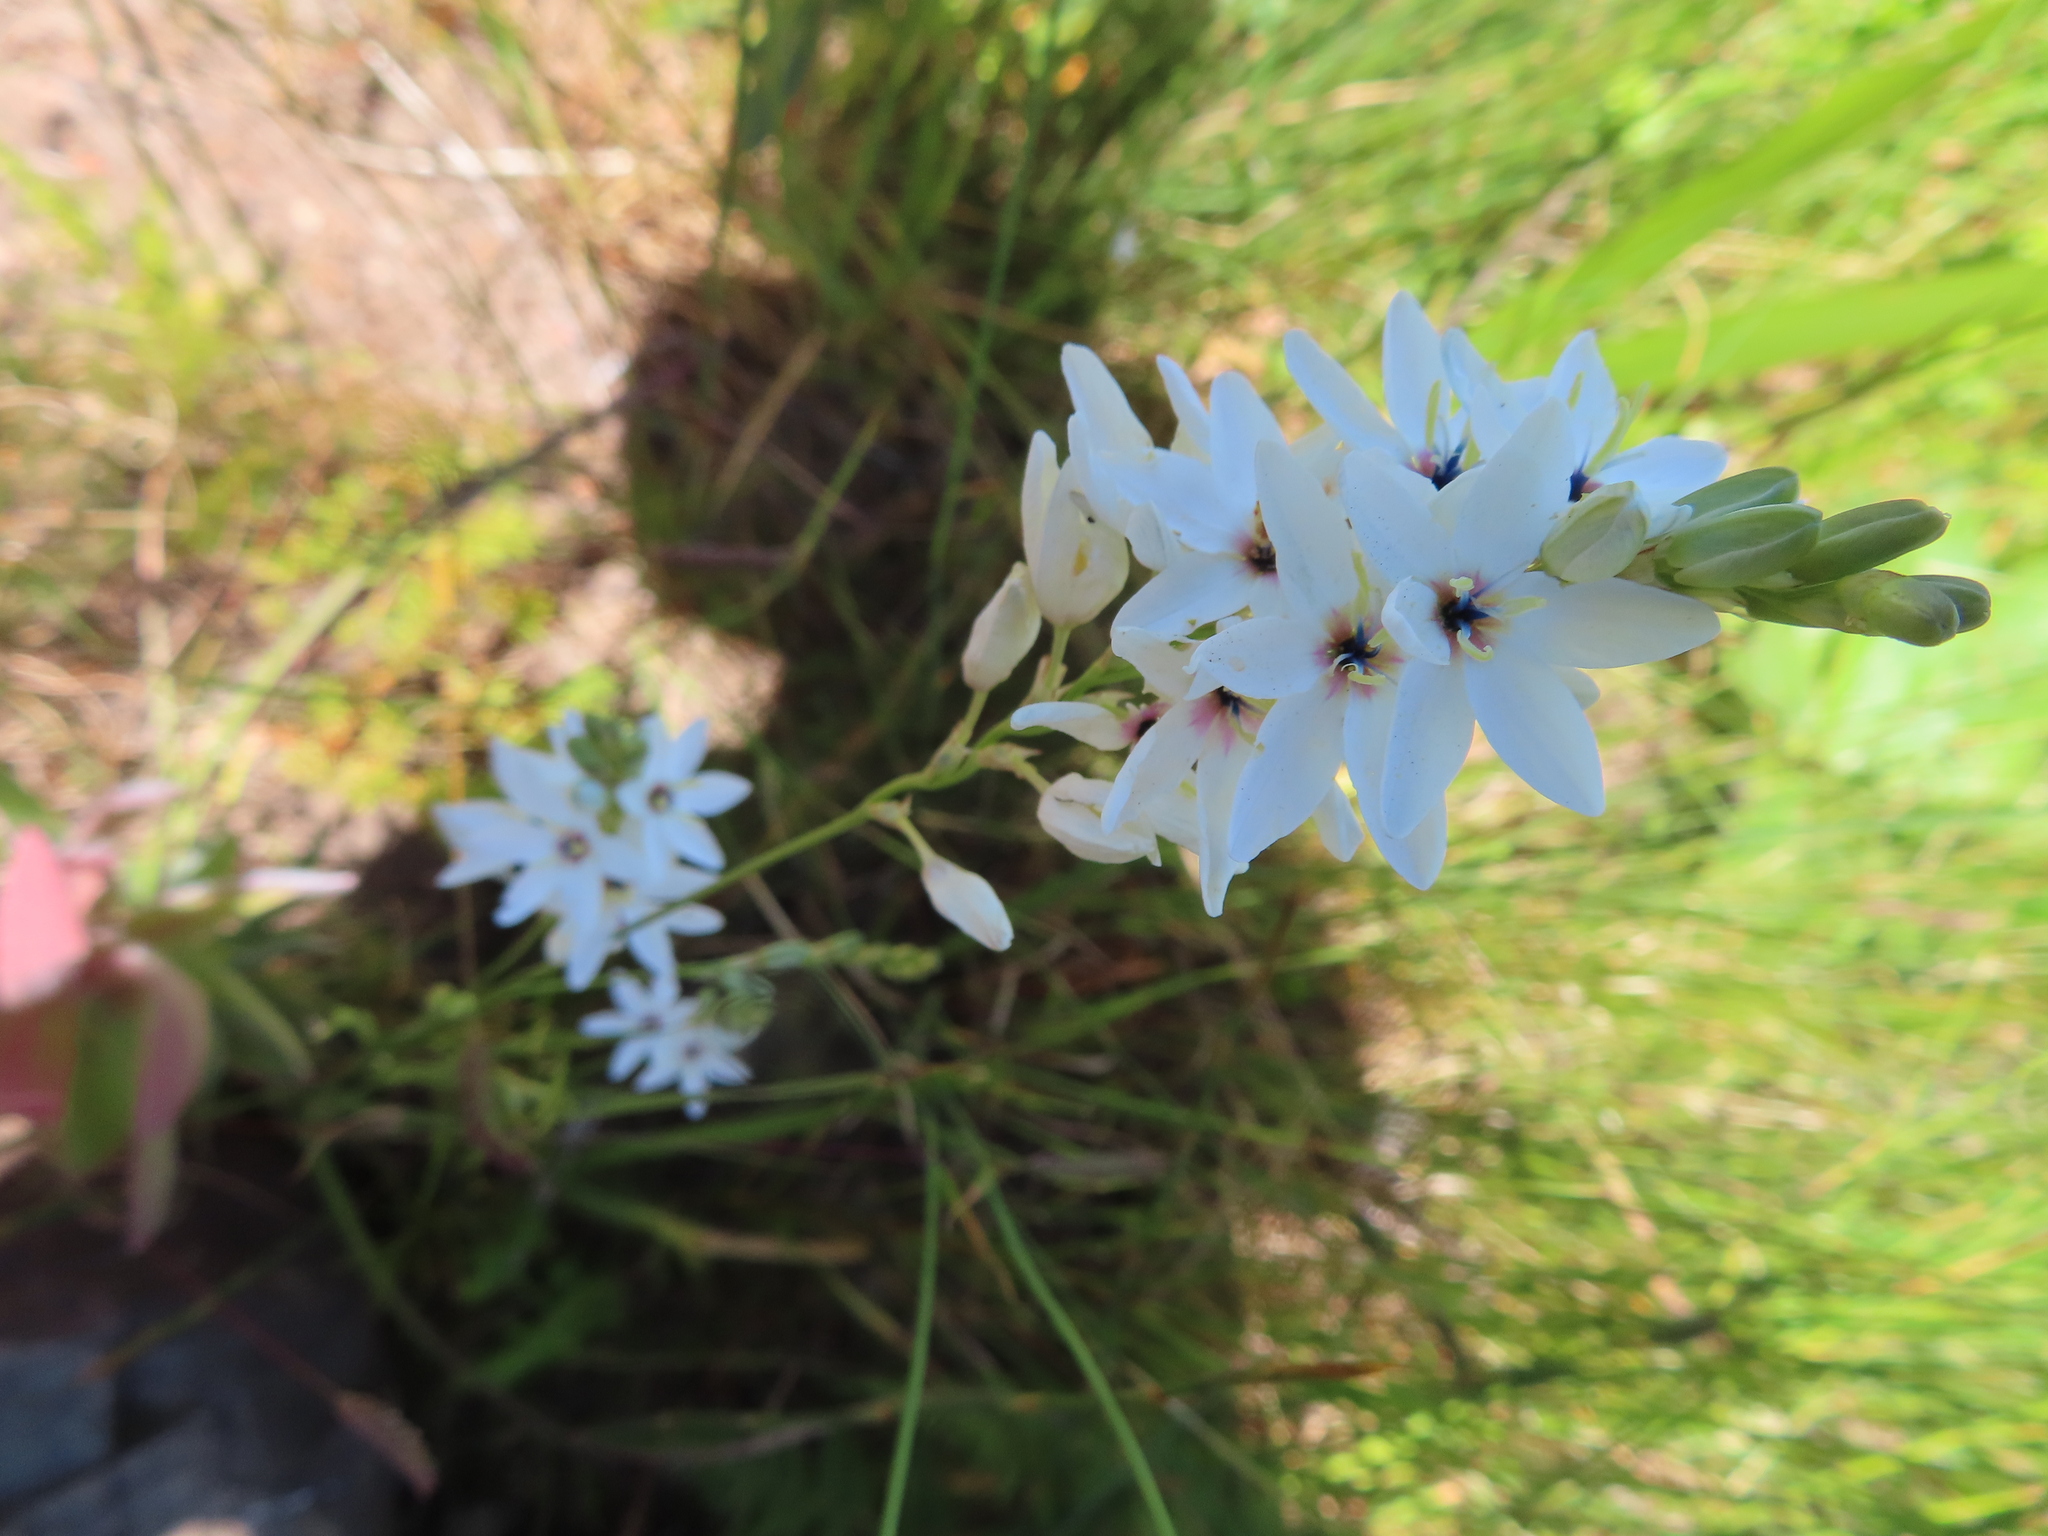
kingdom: Plantae
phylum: Tracheophyta
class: Liliopsida
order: Asparagales
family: Iridaceae
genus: Ixia
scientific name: Ixia polystachya
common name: White-and-yellow-flower cornlily
